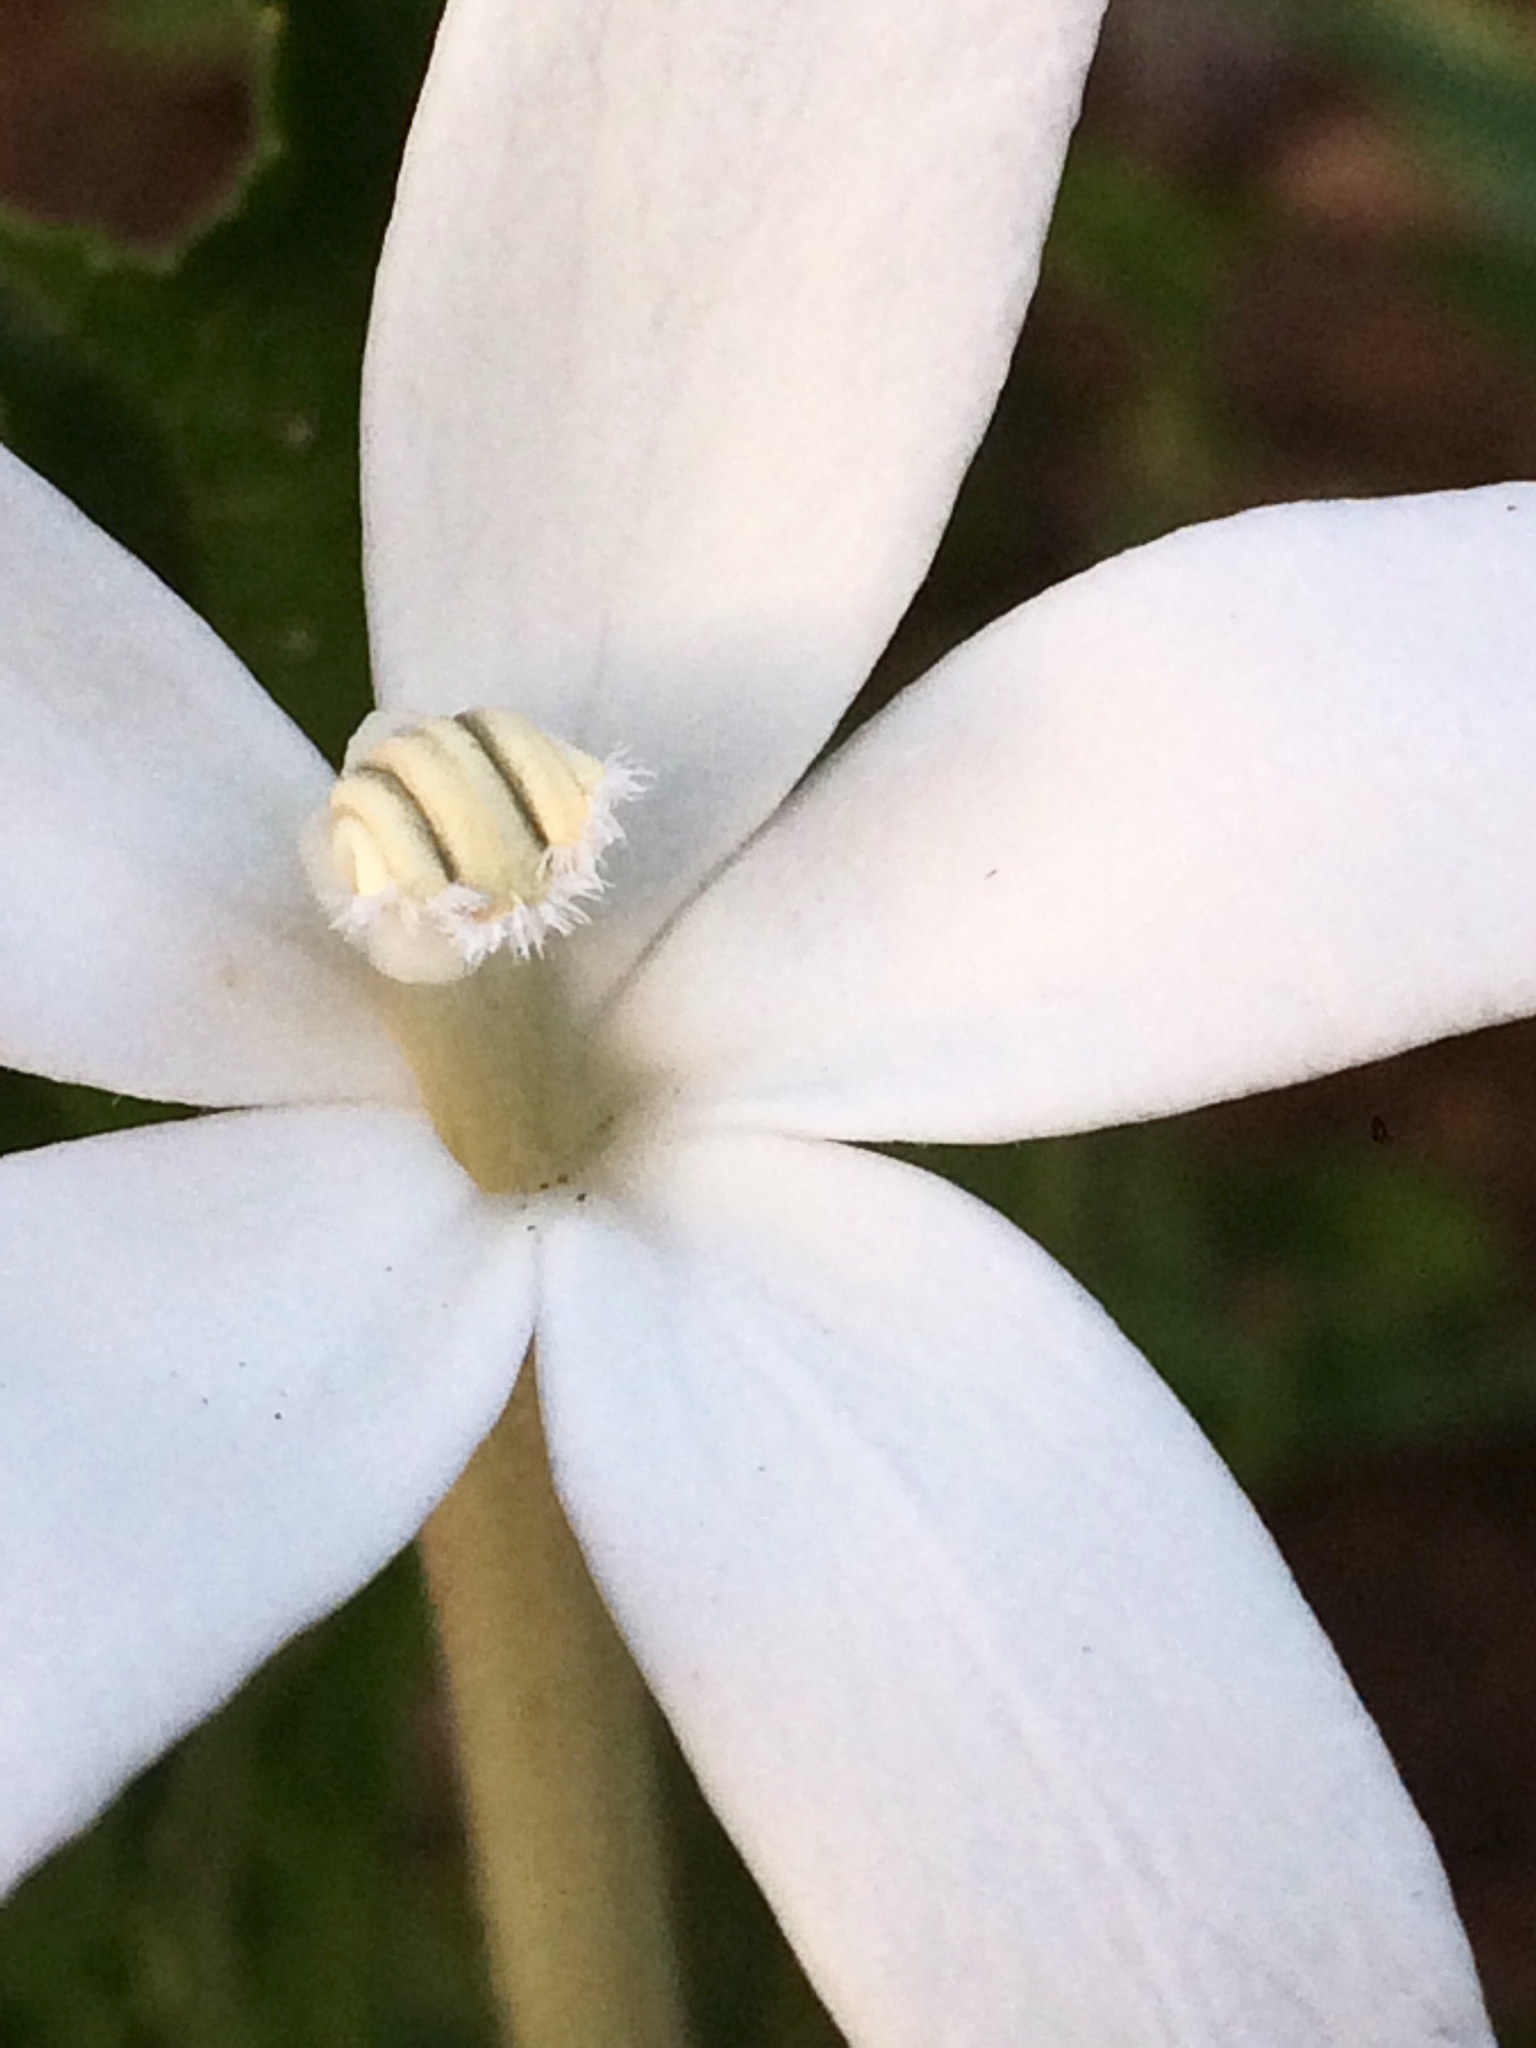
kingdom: Plantae
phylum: Tracheophyta
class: Magnoliopsida
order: Asterales
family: Campanulaceae
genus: Hippobroma
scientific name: Hippobroma longiflora
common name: Madamfate
